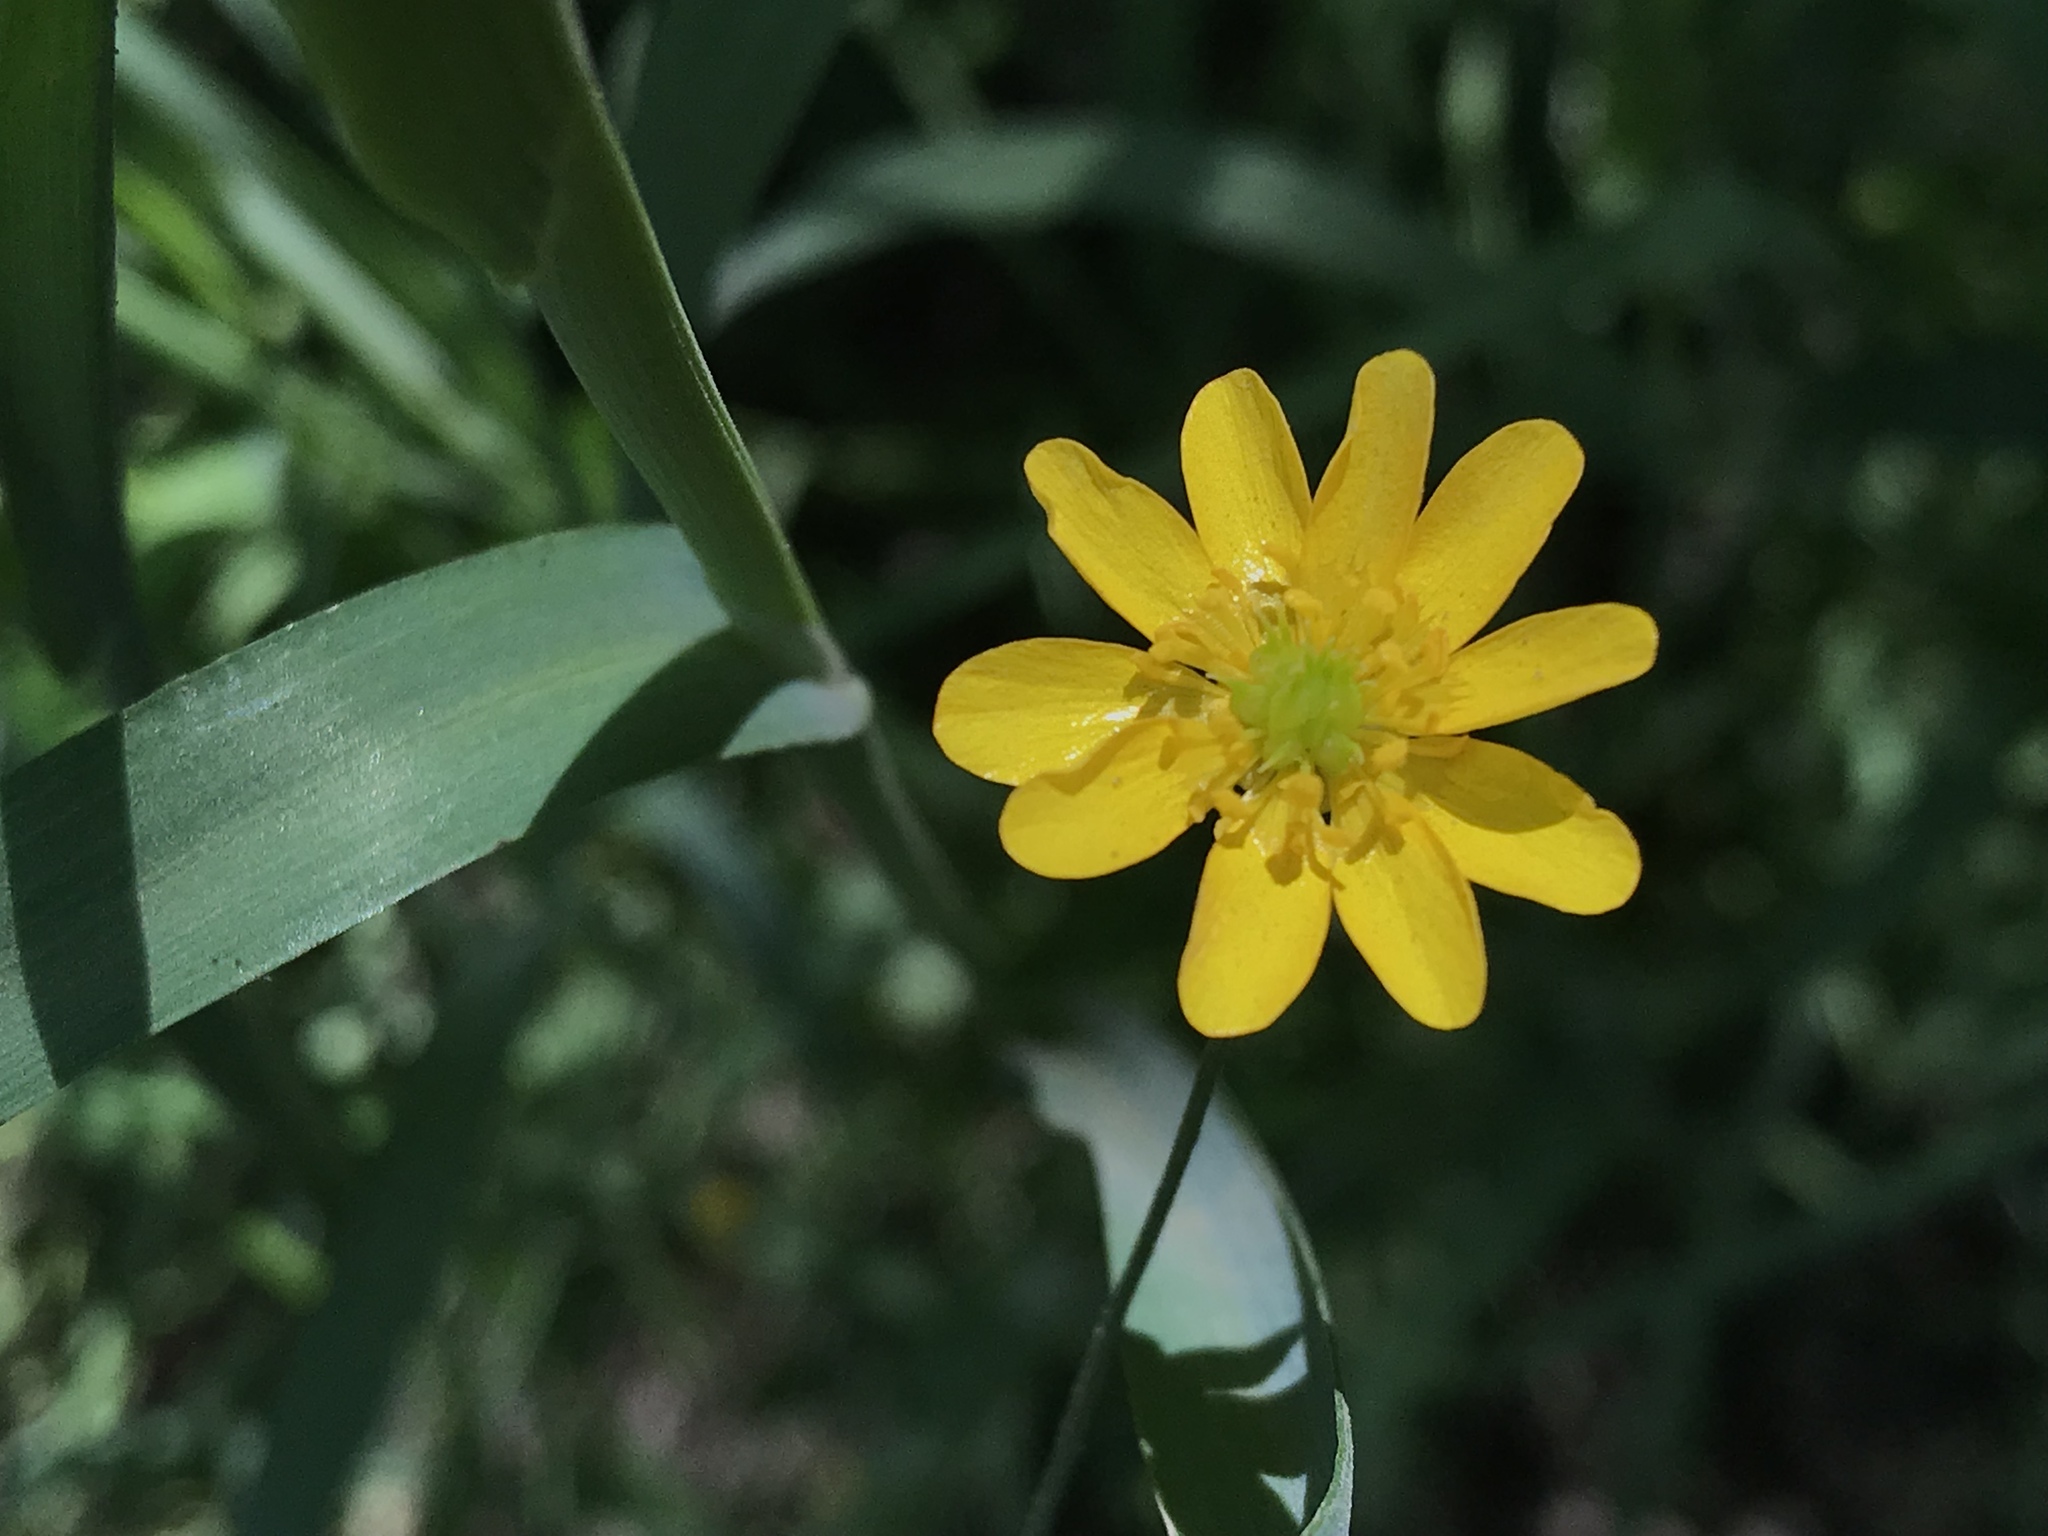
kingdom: Plantae
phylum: Tracheophyta
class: Magnoliopsida
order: Ranunculales
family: Ranunculaceae
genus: Ranunculus
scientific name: Ranunculus californicus
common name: California buttercup
